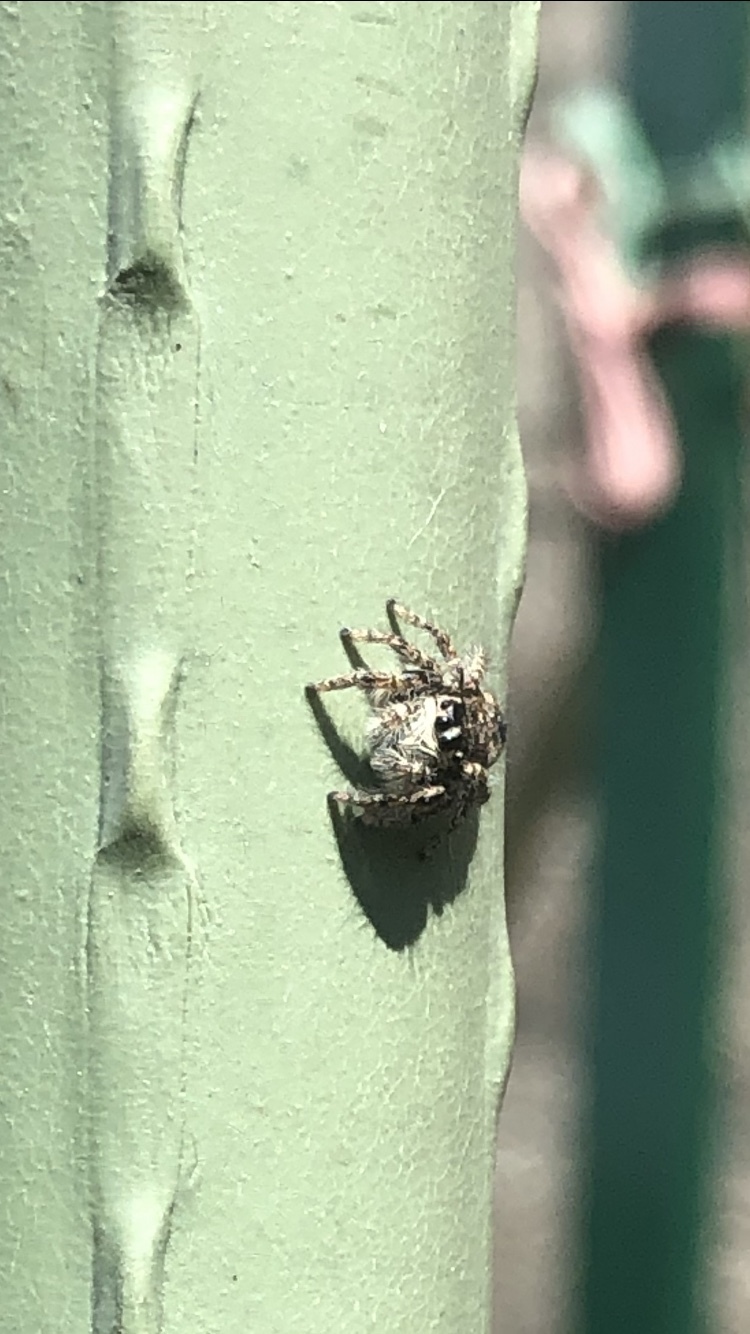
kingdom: Animalia
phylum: Arthropoda
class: Arachnida
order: Araneae
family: Salticidae
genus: Philaeus
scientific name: Philaeus chrysops
